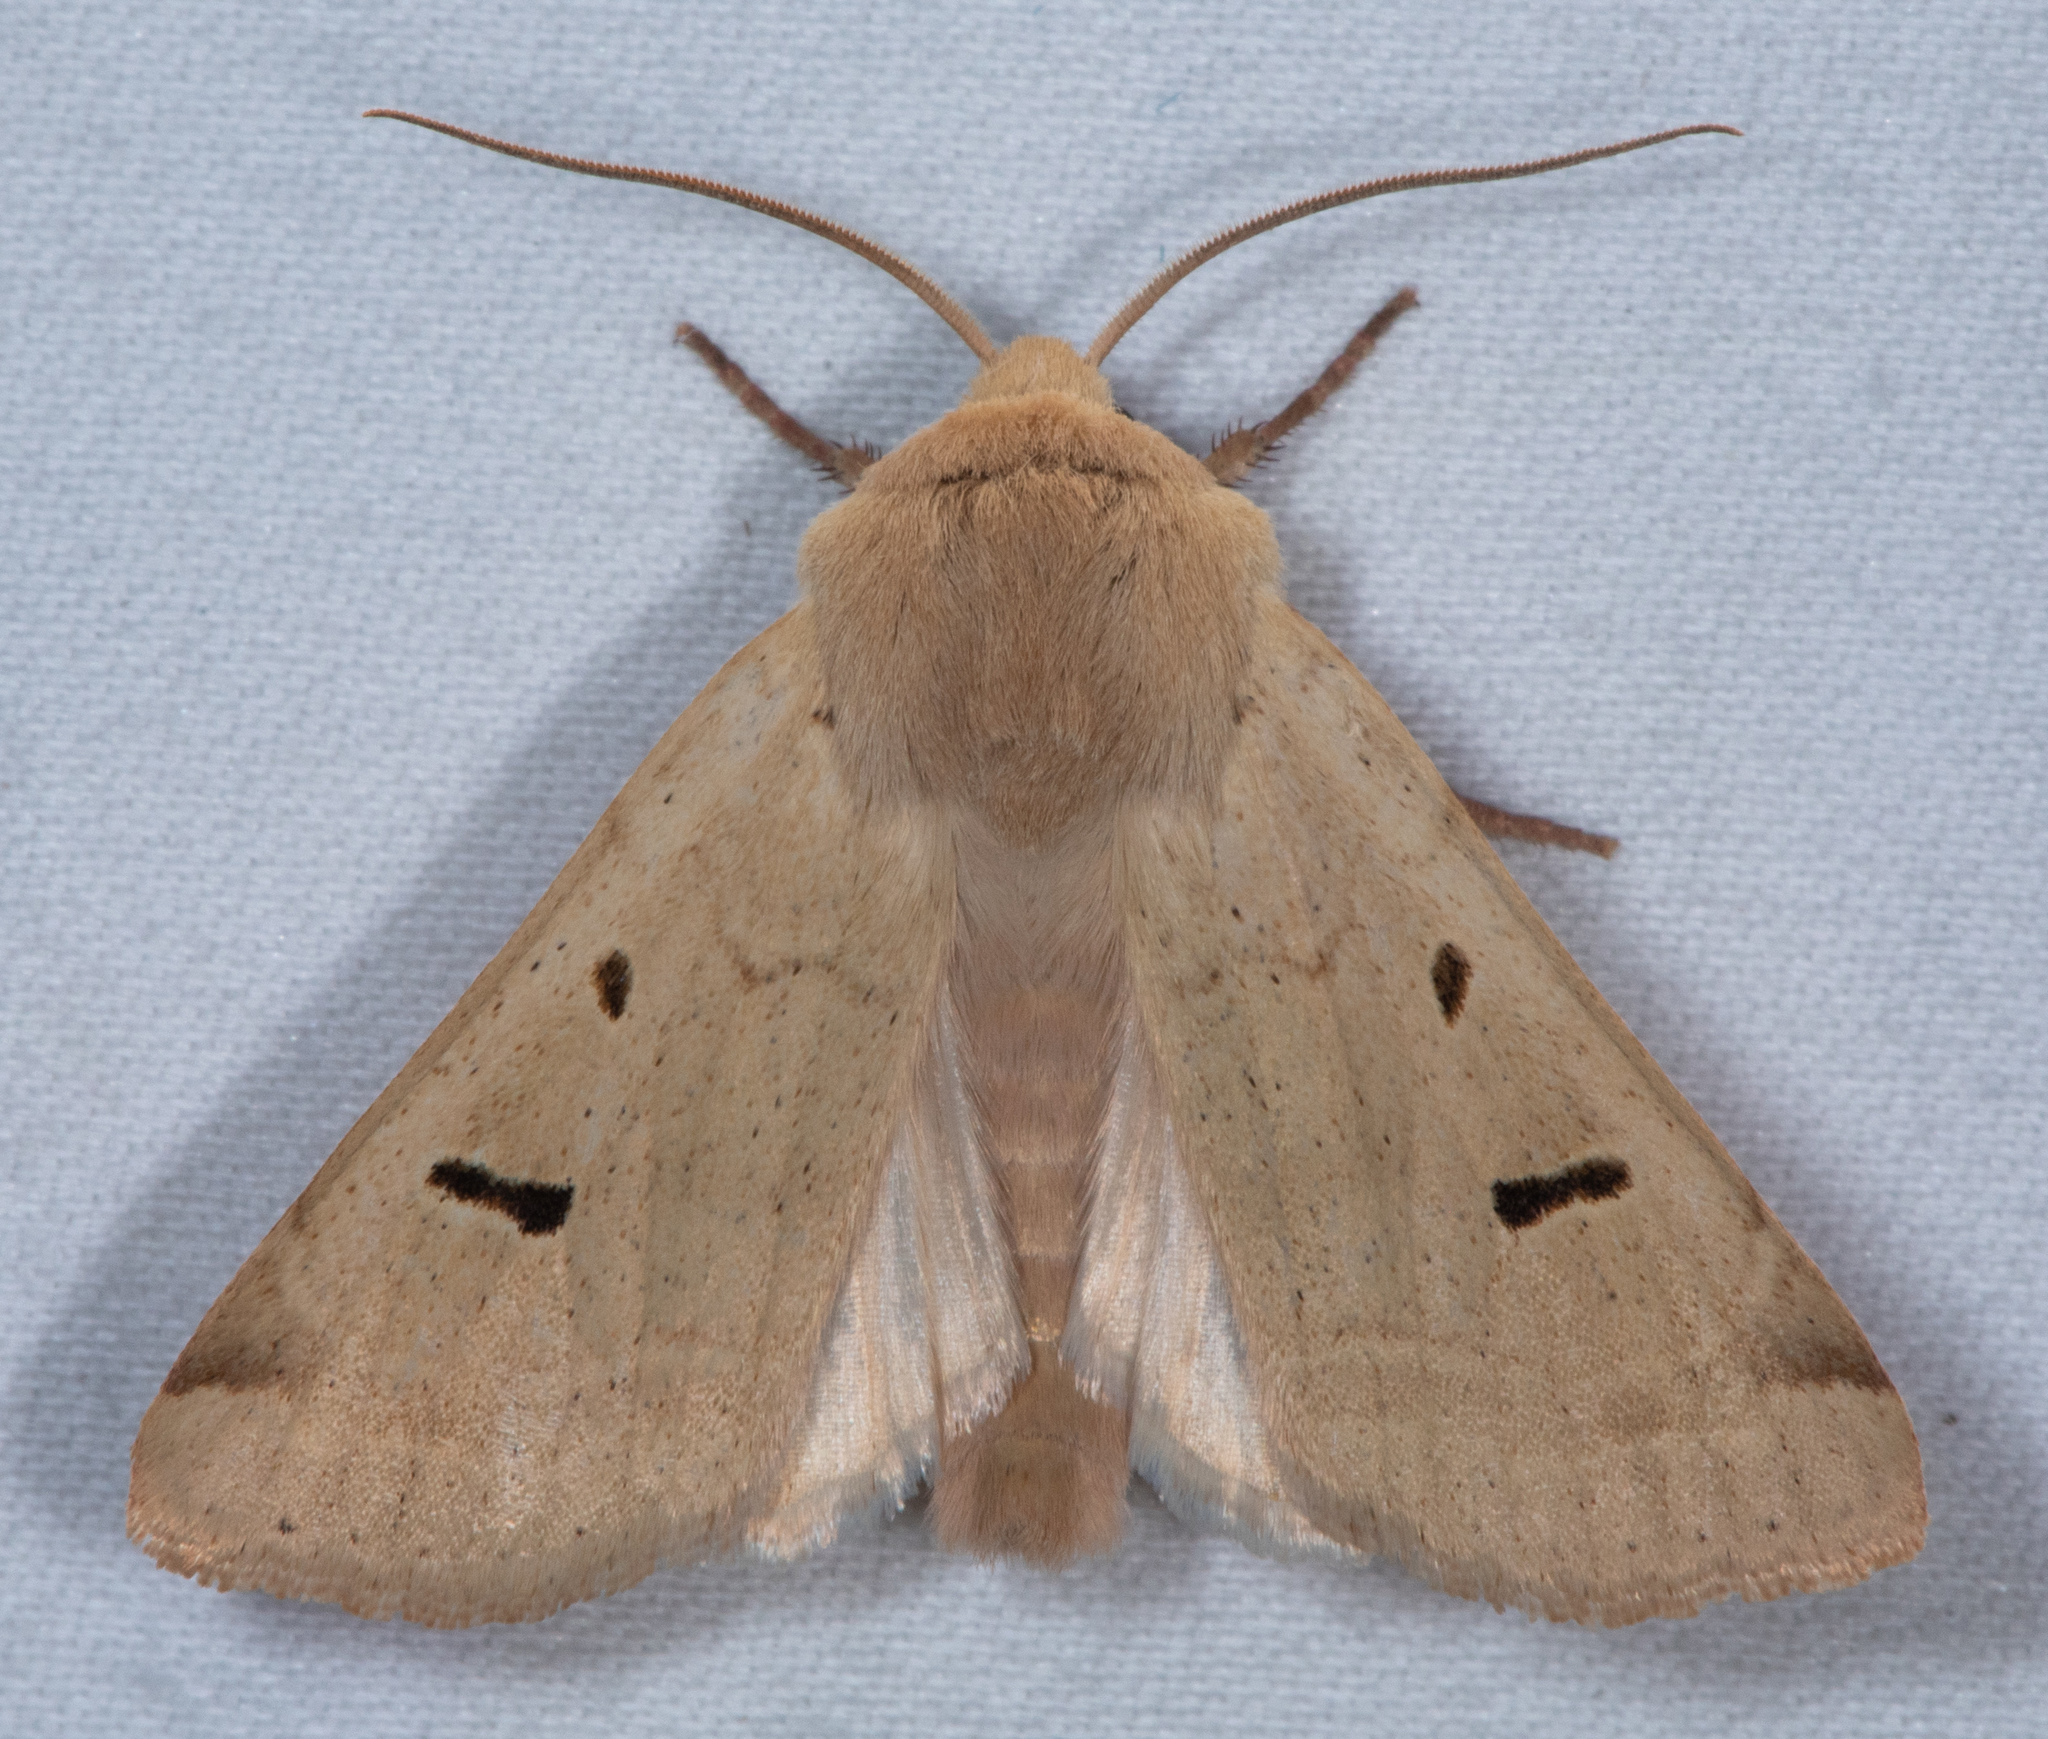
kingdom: Animalia
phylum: Arthropoda
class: Insecta
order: Lepidoptera
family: Noctuidae
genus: Dichagyris
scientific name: Dichagyris variabilis
